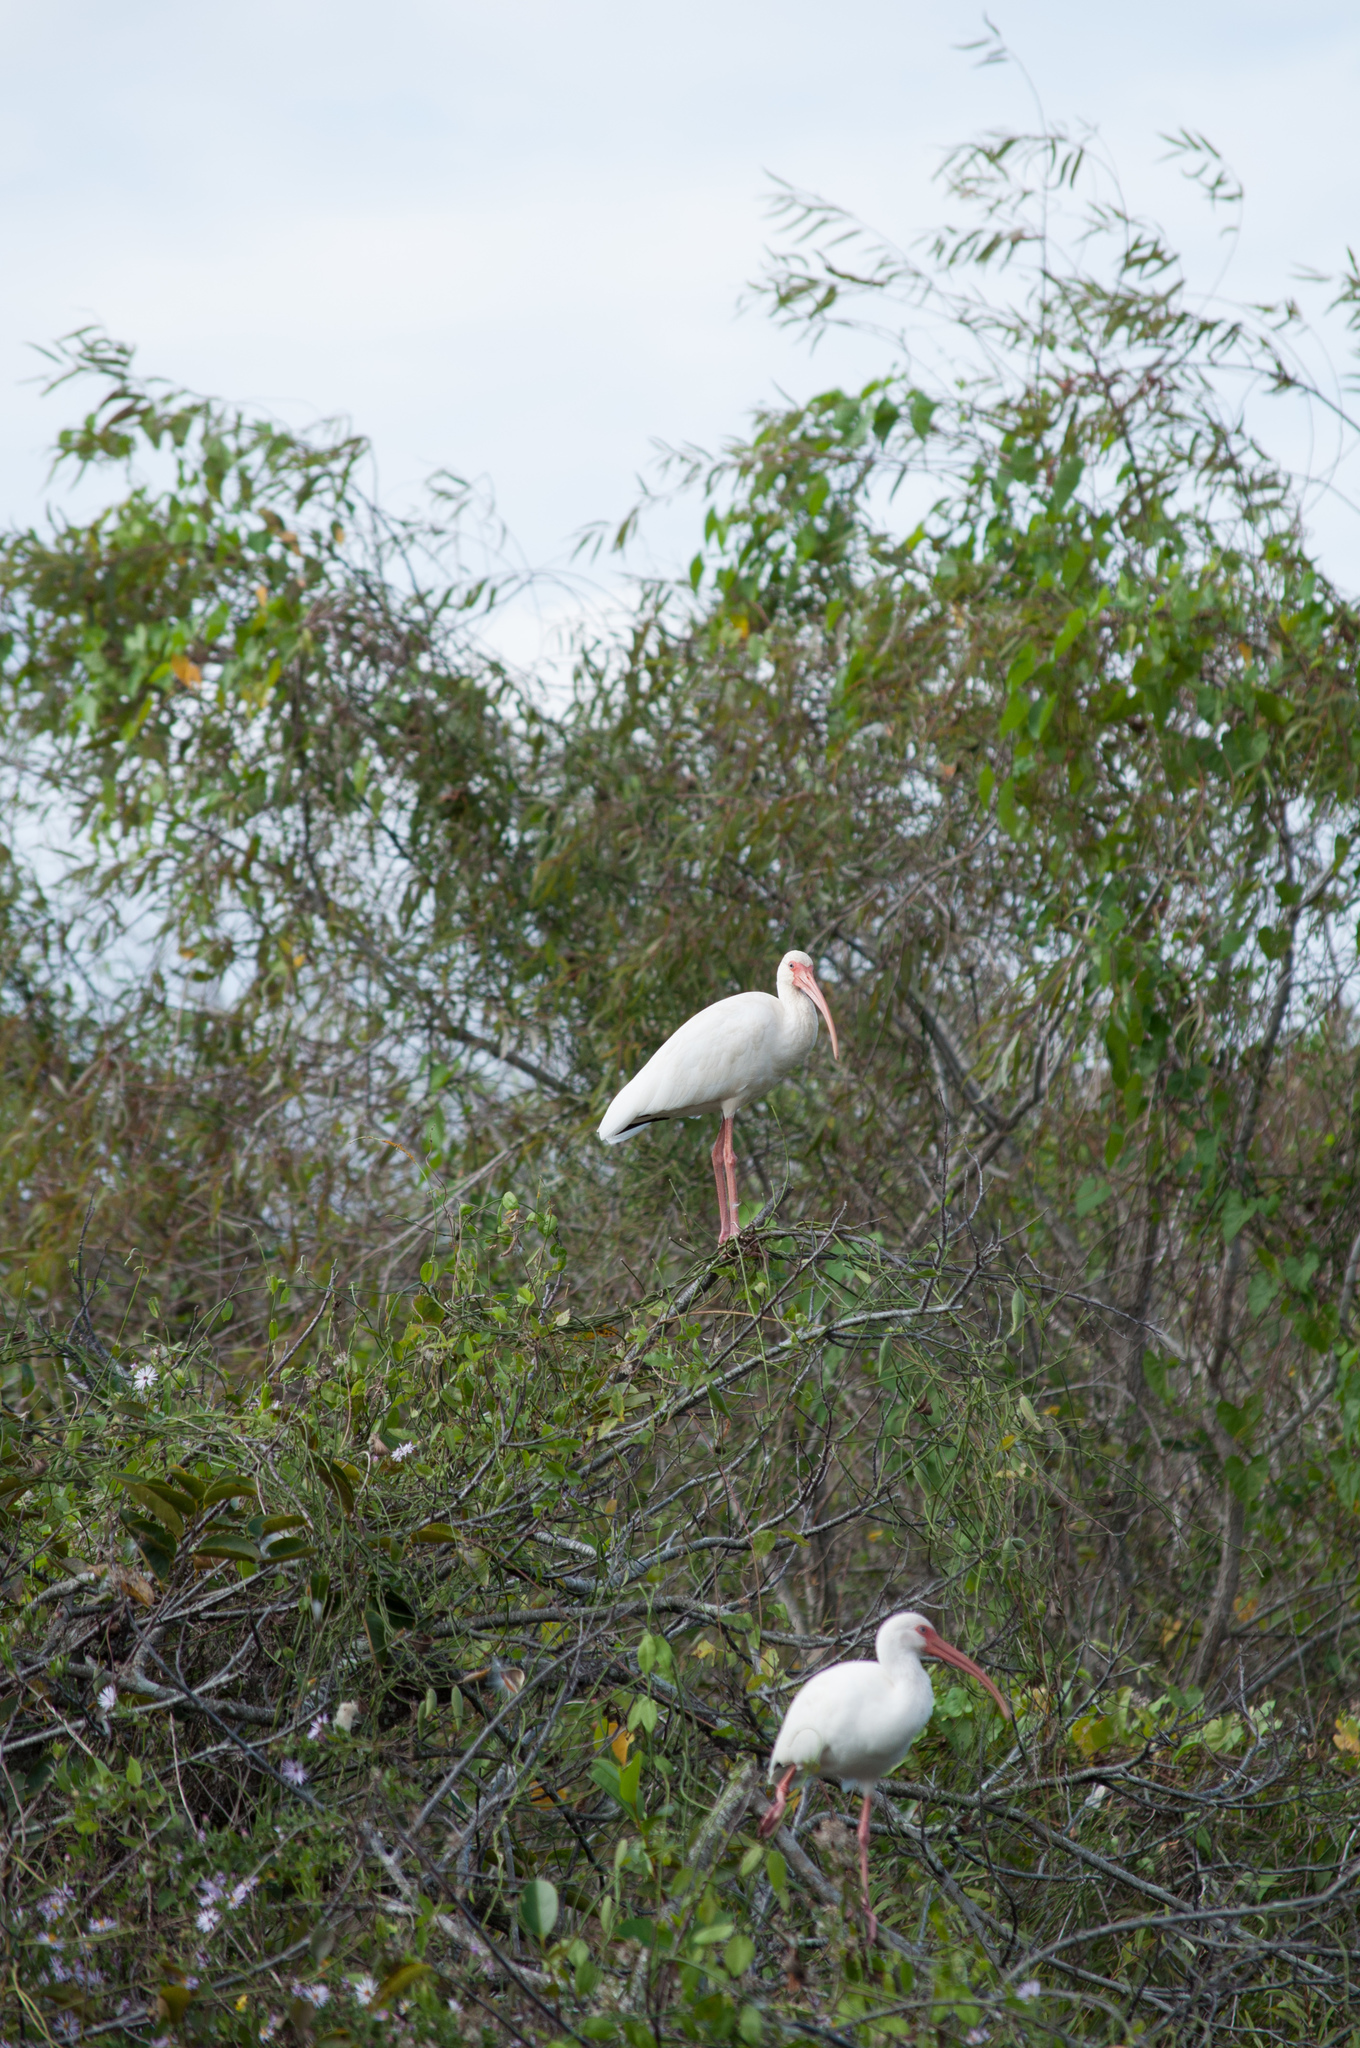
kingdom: Animalia
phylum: Chordata
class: Aves
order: Pelecaniformes
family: Threskiornithidae
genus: Eudocimus
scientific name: Eudocimus albus
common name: White ibis
